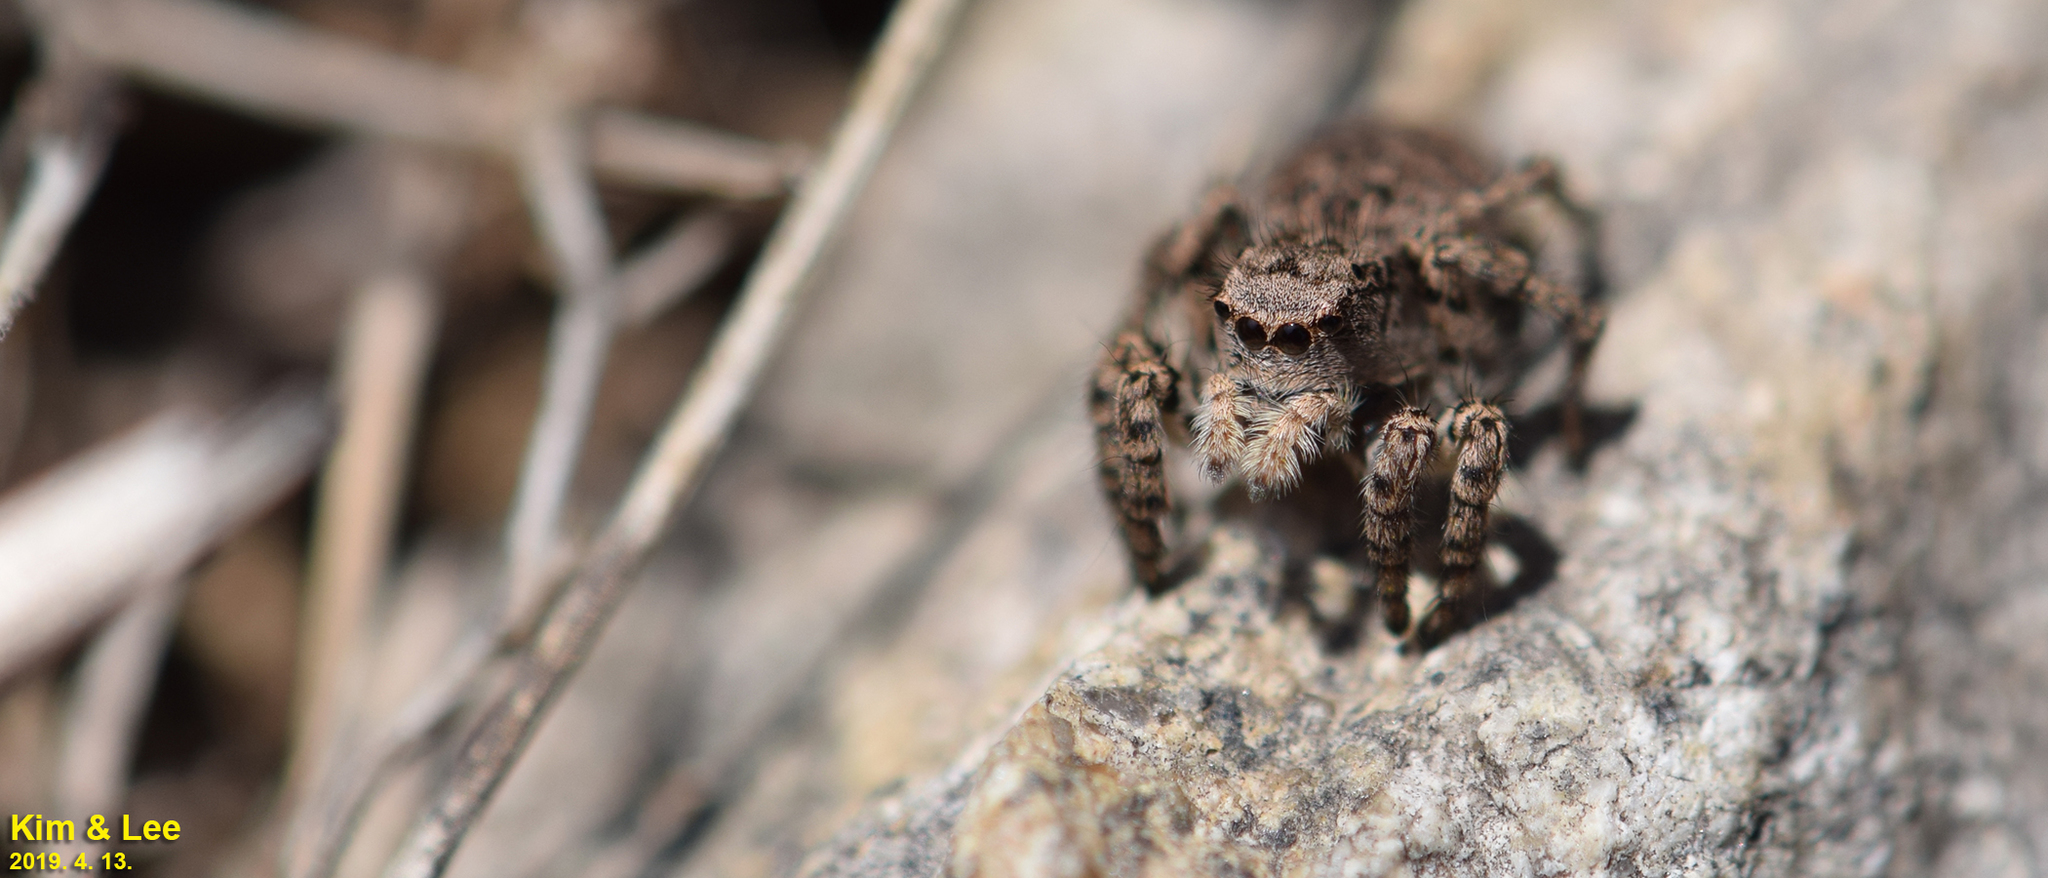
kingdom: Animalia
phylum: Arthropoda
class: Arachnida
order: Araneae
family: Salticidae
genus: Asianellus
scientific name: Asianellus festivus
